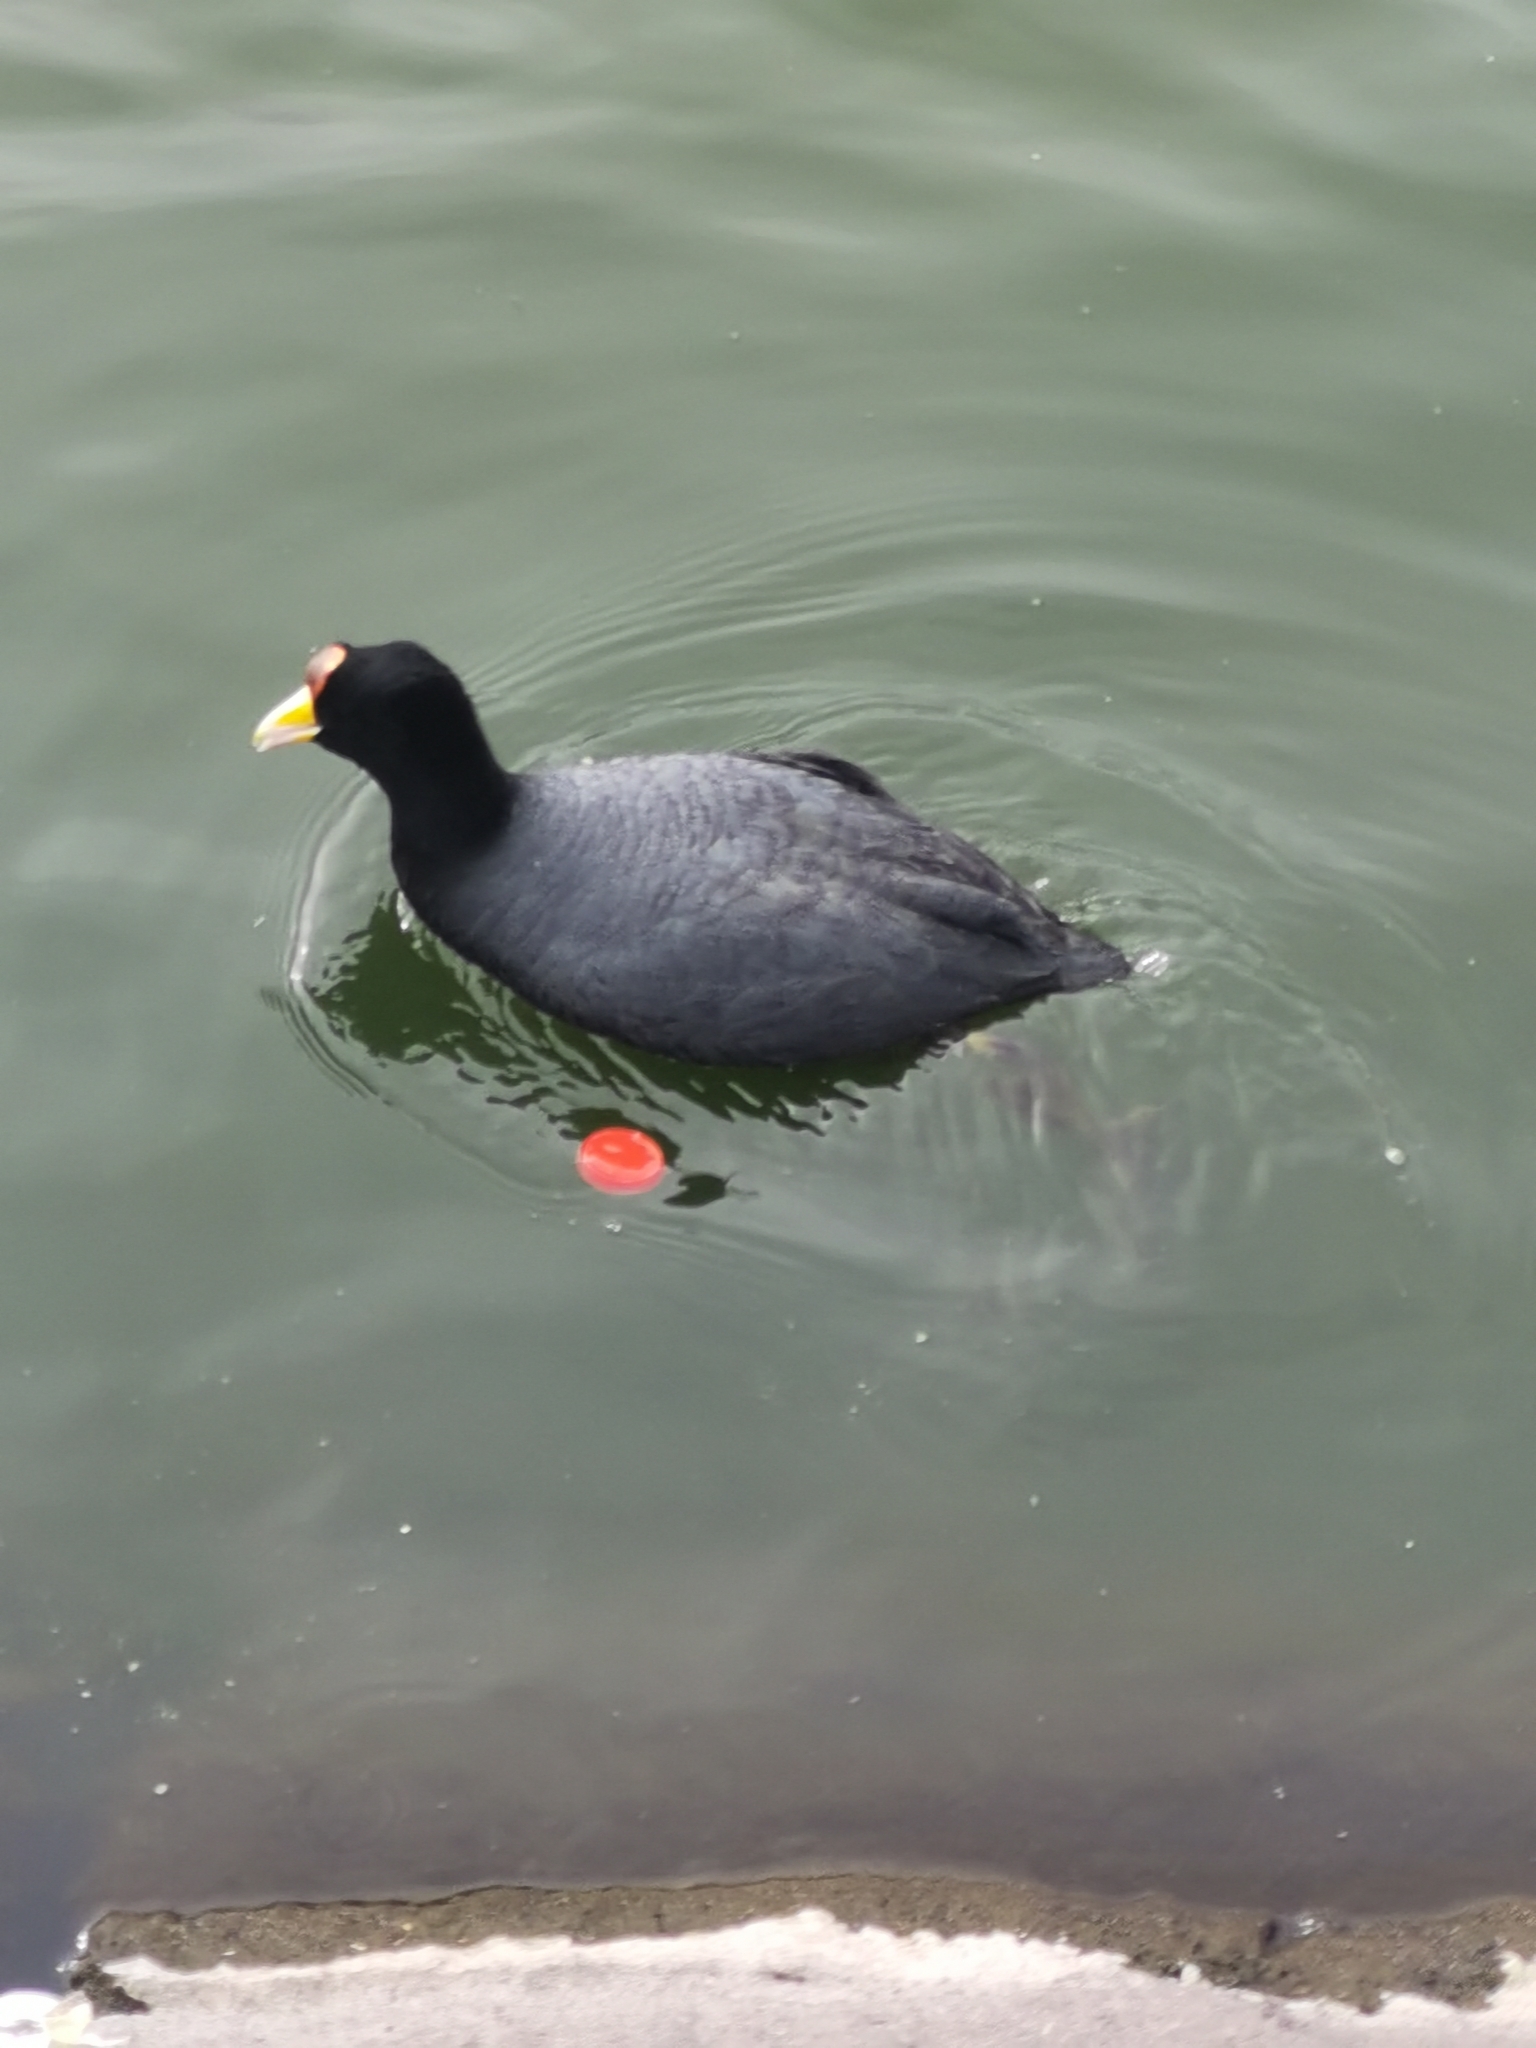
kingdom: Animalia
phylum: Chordata
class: Aves
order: Gruiformes
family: Rallidae
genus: Fulica
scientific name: Fulica ardesiaca
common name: Andean coot
